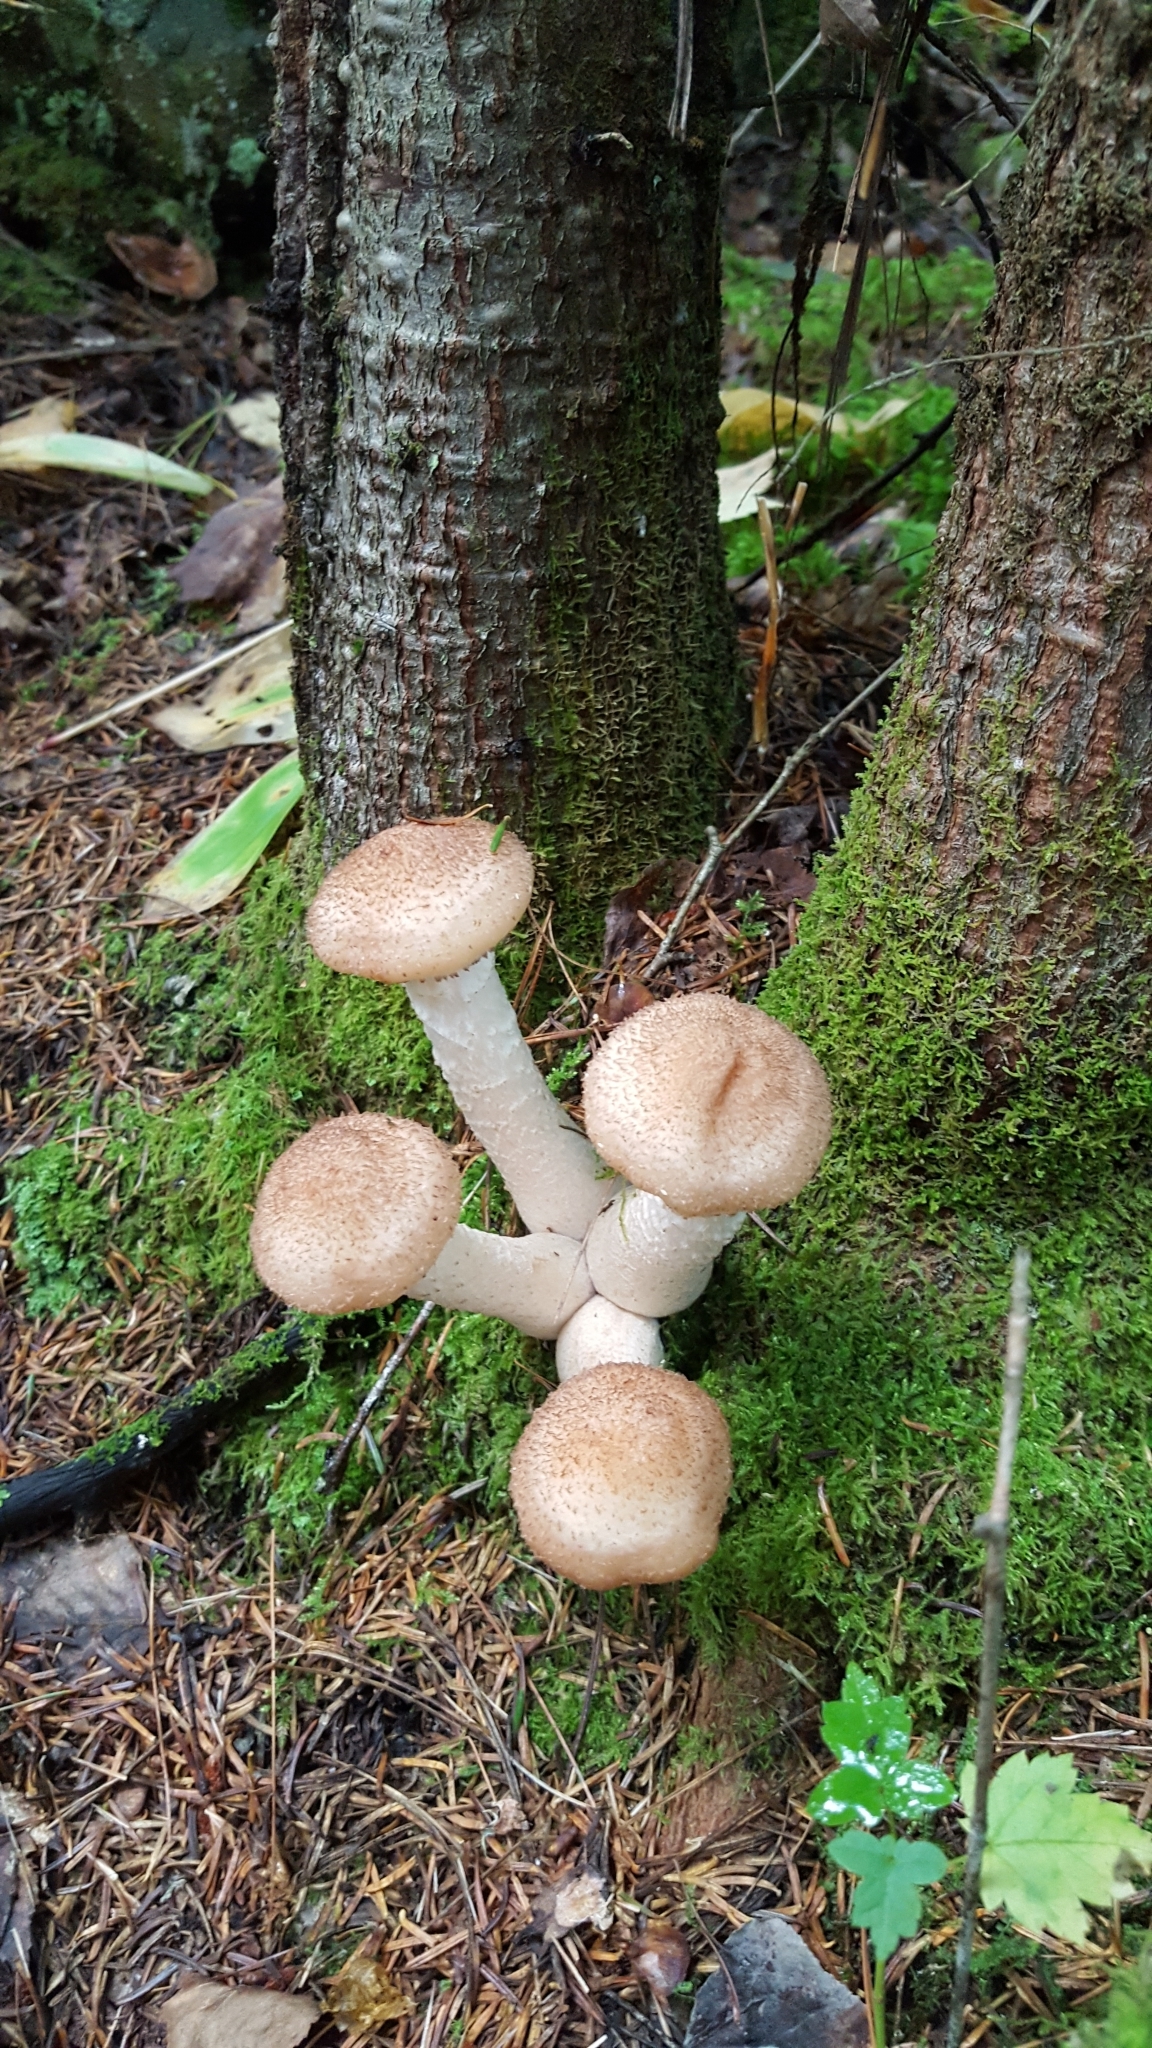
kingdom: Fungi
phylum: Basidiomycota
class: Agaricomycetes
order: Agaricales
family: Physalacriaceae
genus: Armillaria
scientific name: Armillaria mellea
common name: Honey fungus
